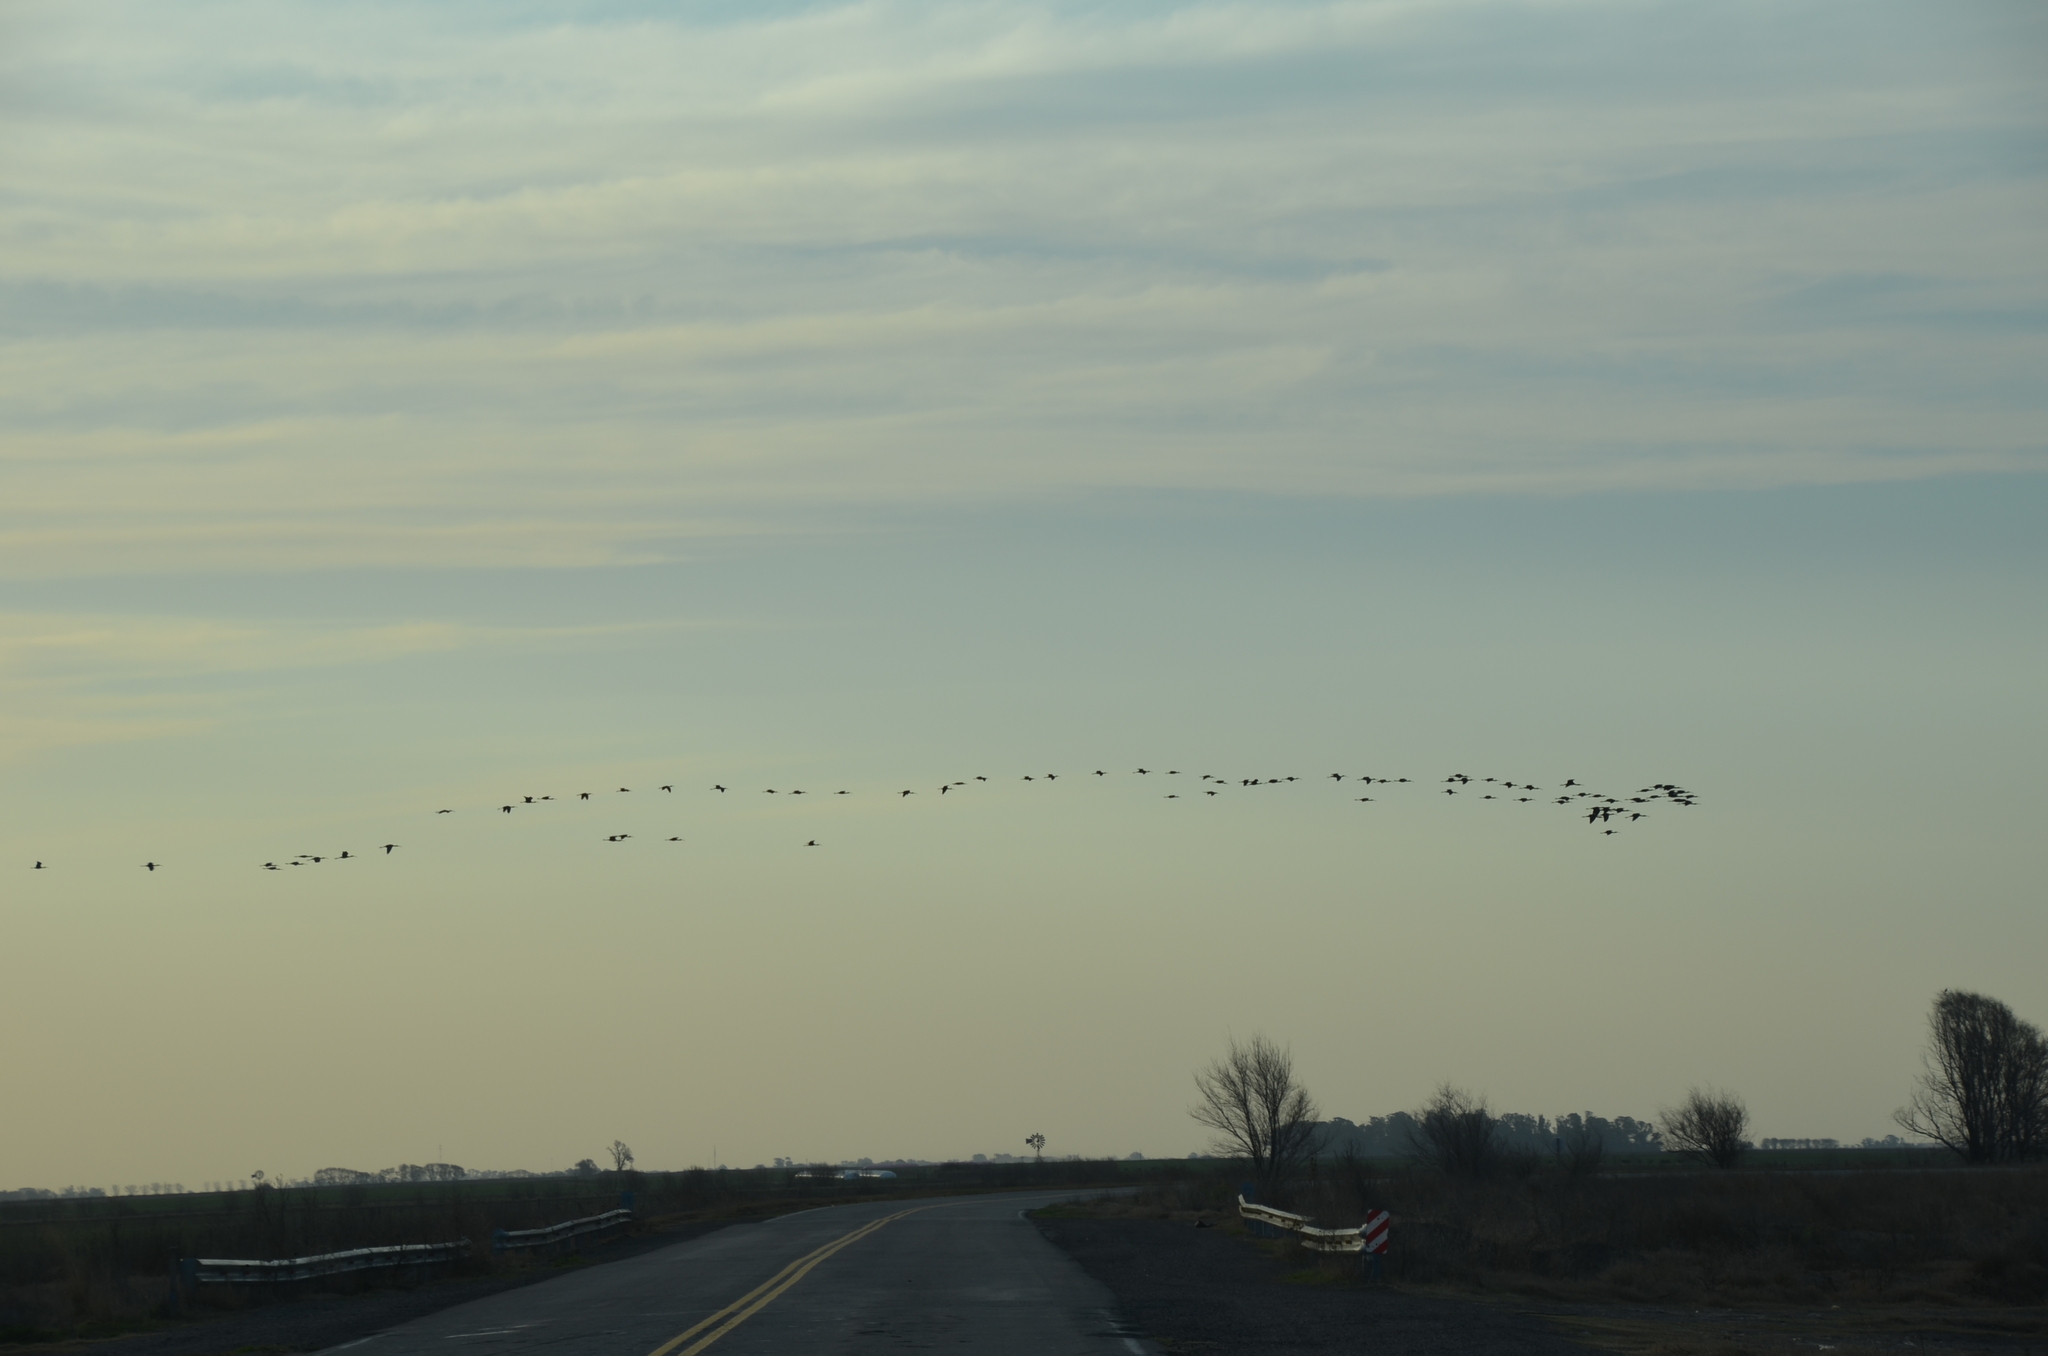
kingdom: Animalia
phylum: Chordata
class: Aves
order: Pelecaniformes
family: Threskiornithidae
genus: Plegadis
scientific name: Plegadis chihi
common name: White-faced ibis
